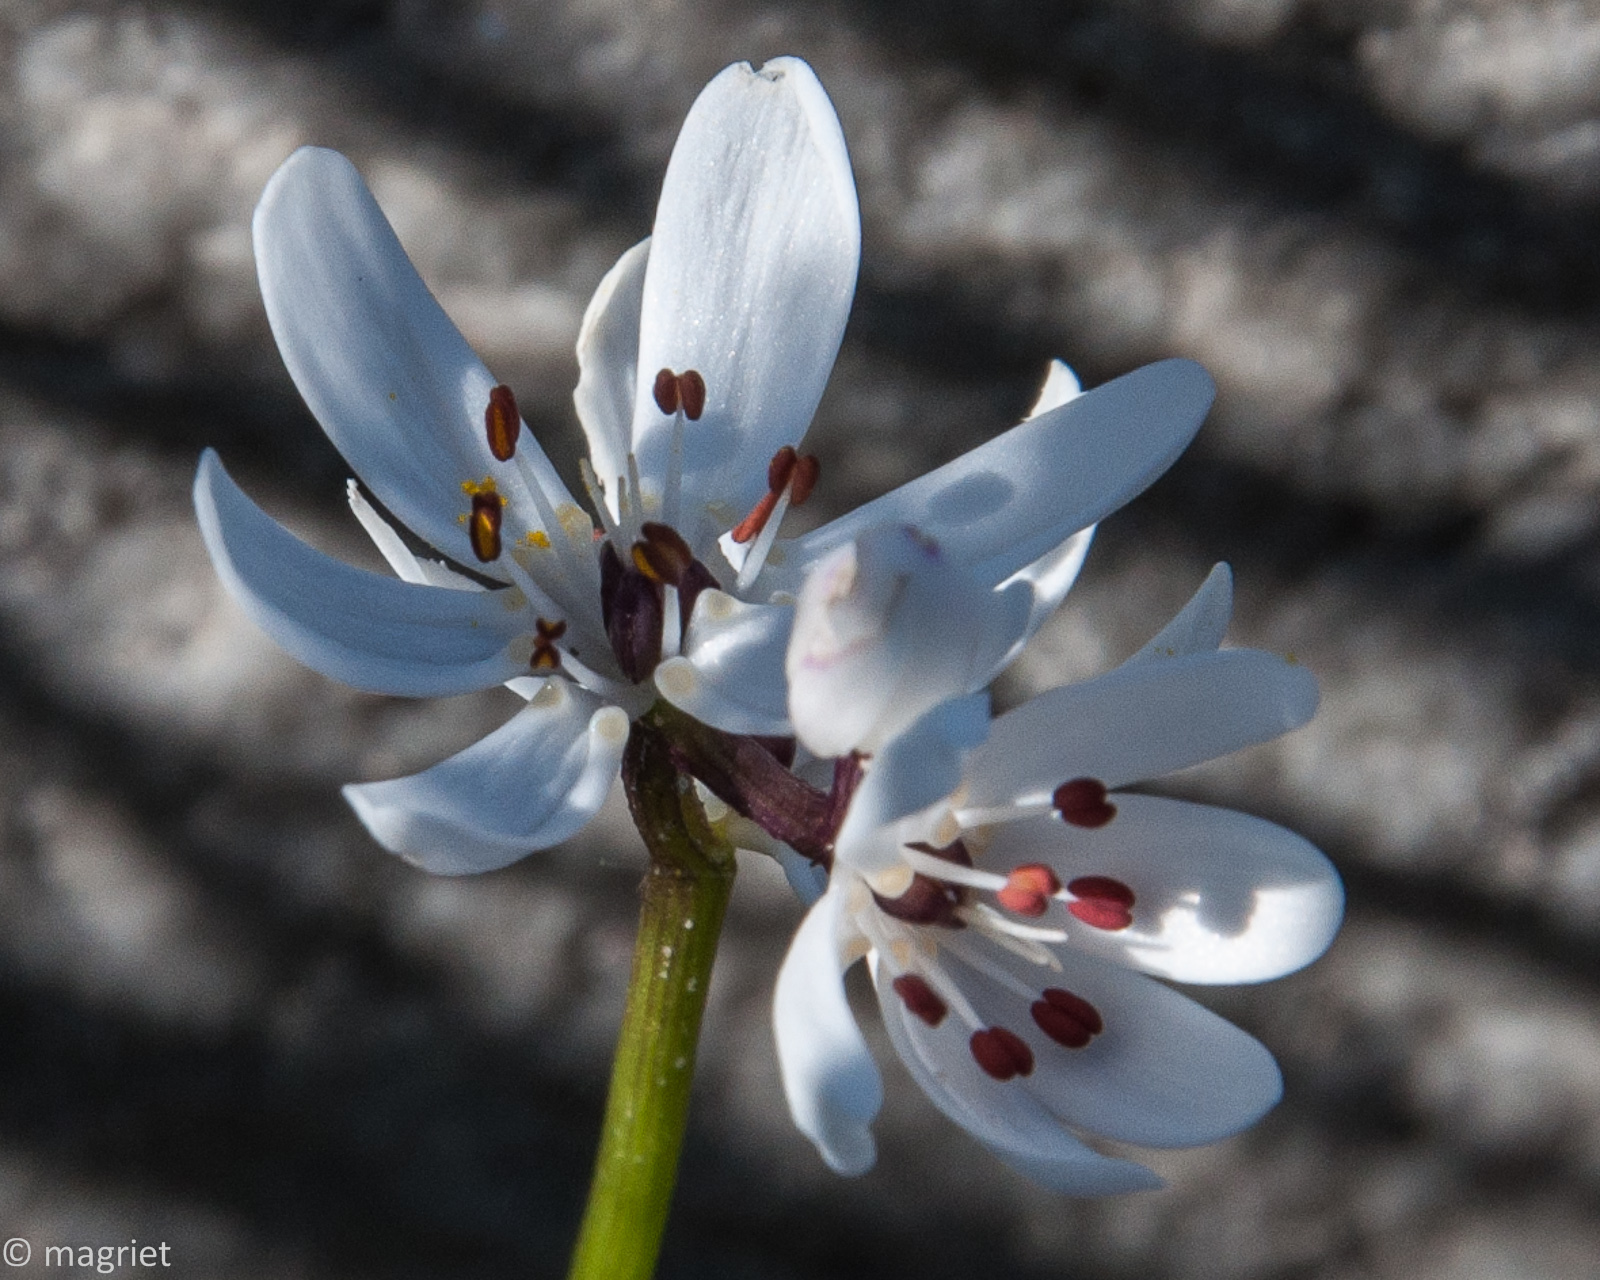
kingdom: Plantae
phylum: Tracheophyta
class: Liliopsida
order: Liliales
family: Colchicaceae
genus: Wurmbea
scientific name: Wurmbea punctata
